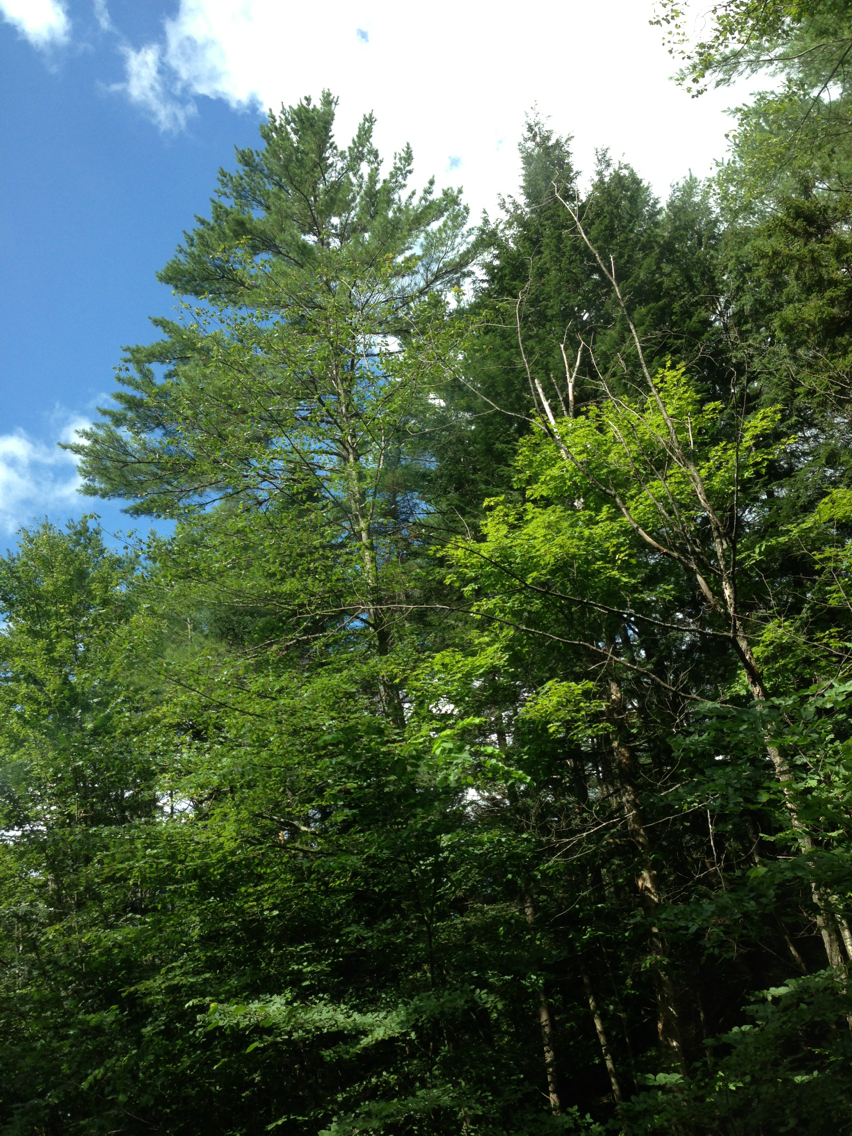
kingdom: Plantae
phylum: Tracheophyta
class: Pinopsida
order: Pinales
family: Pinaceae
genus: Pinus
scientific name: Pinus strobus
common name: Weymouth pine
